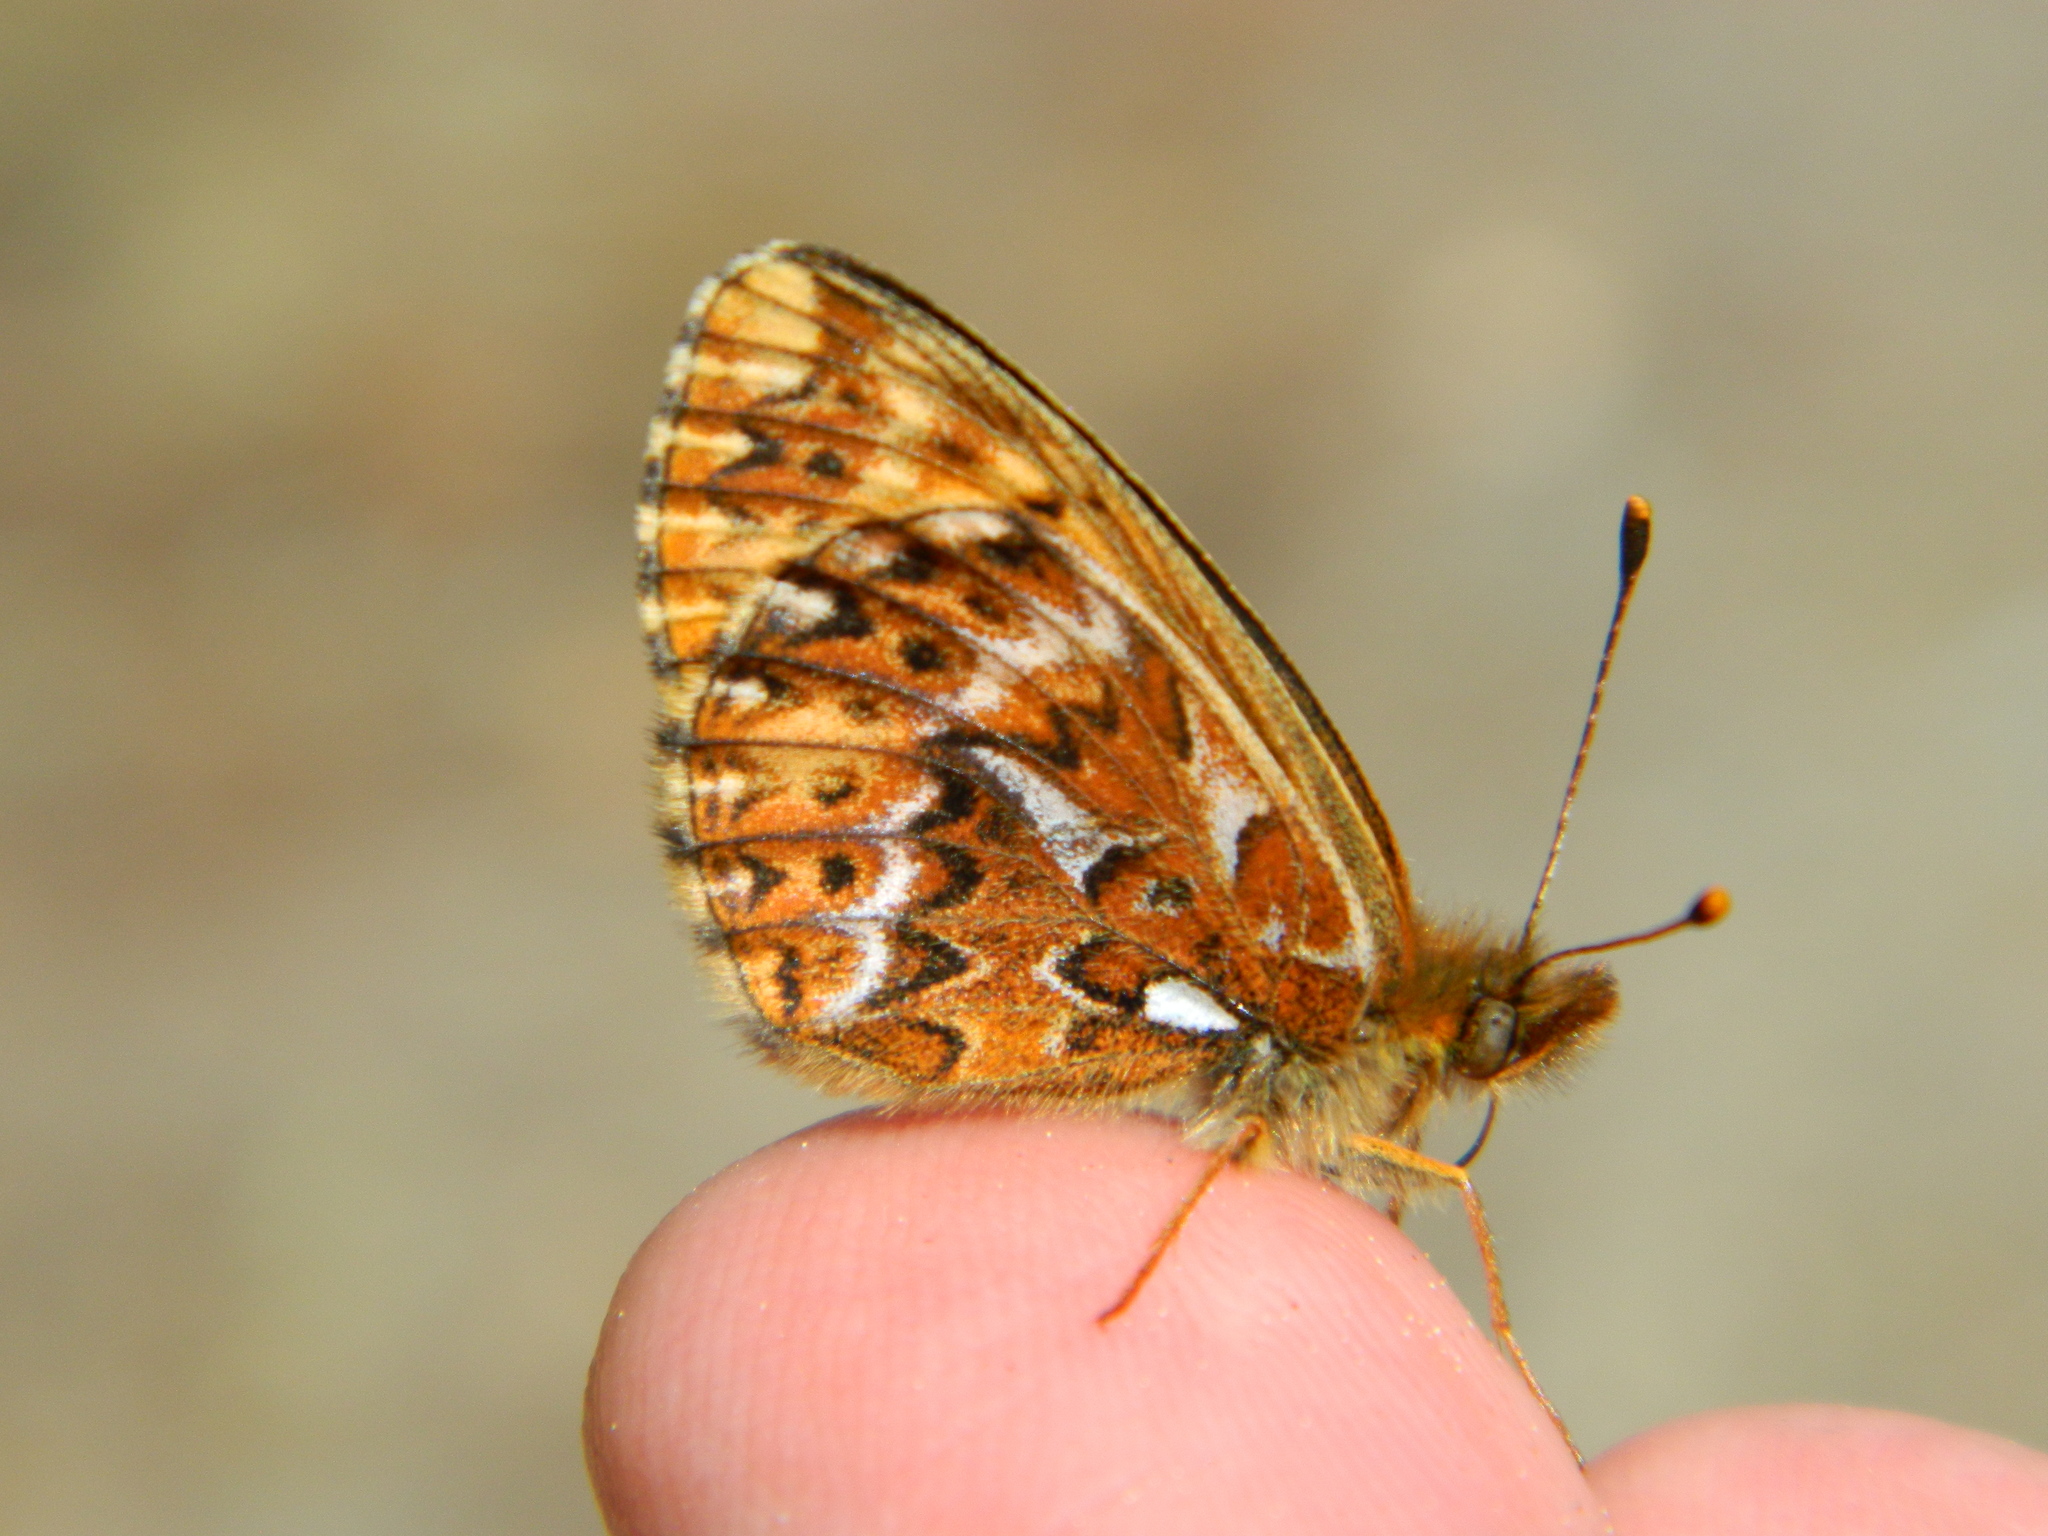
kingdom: Animalia
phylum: Arthropoda
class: Insecta
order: Lepidoptera
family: Nymphalidae
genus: Boloria
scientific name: Boloria freija
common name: Freija fritillary
